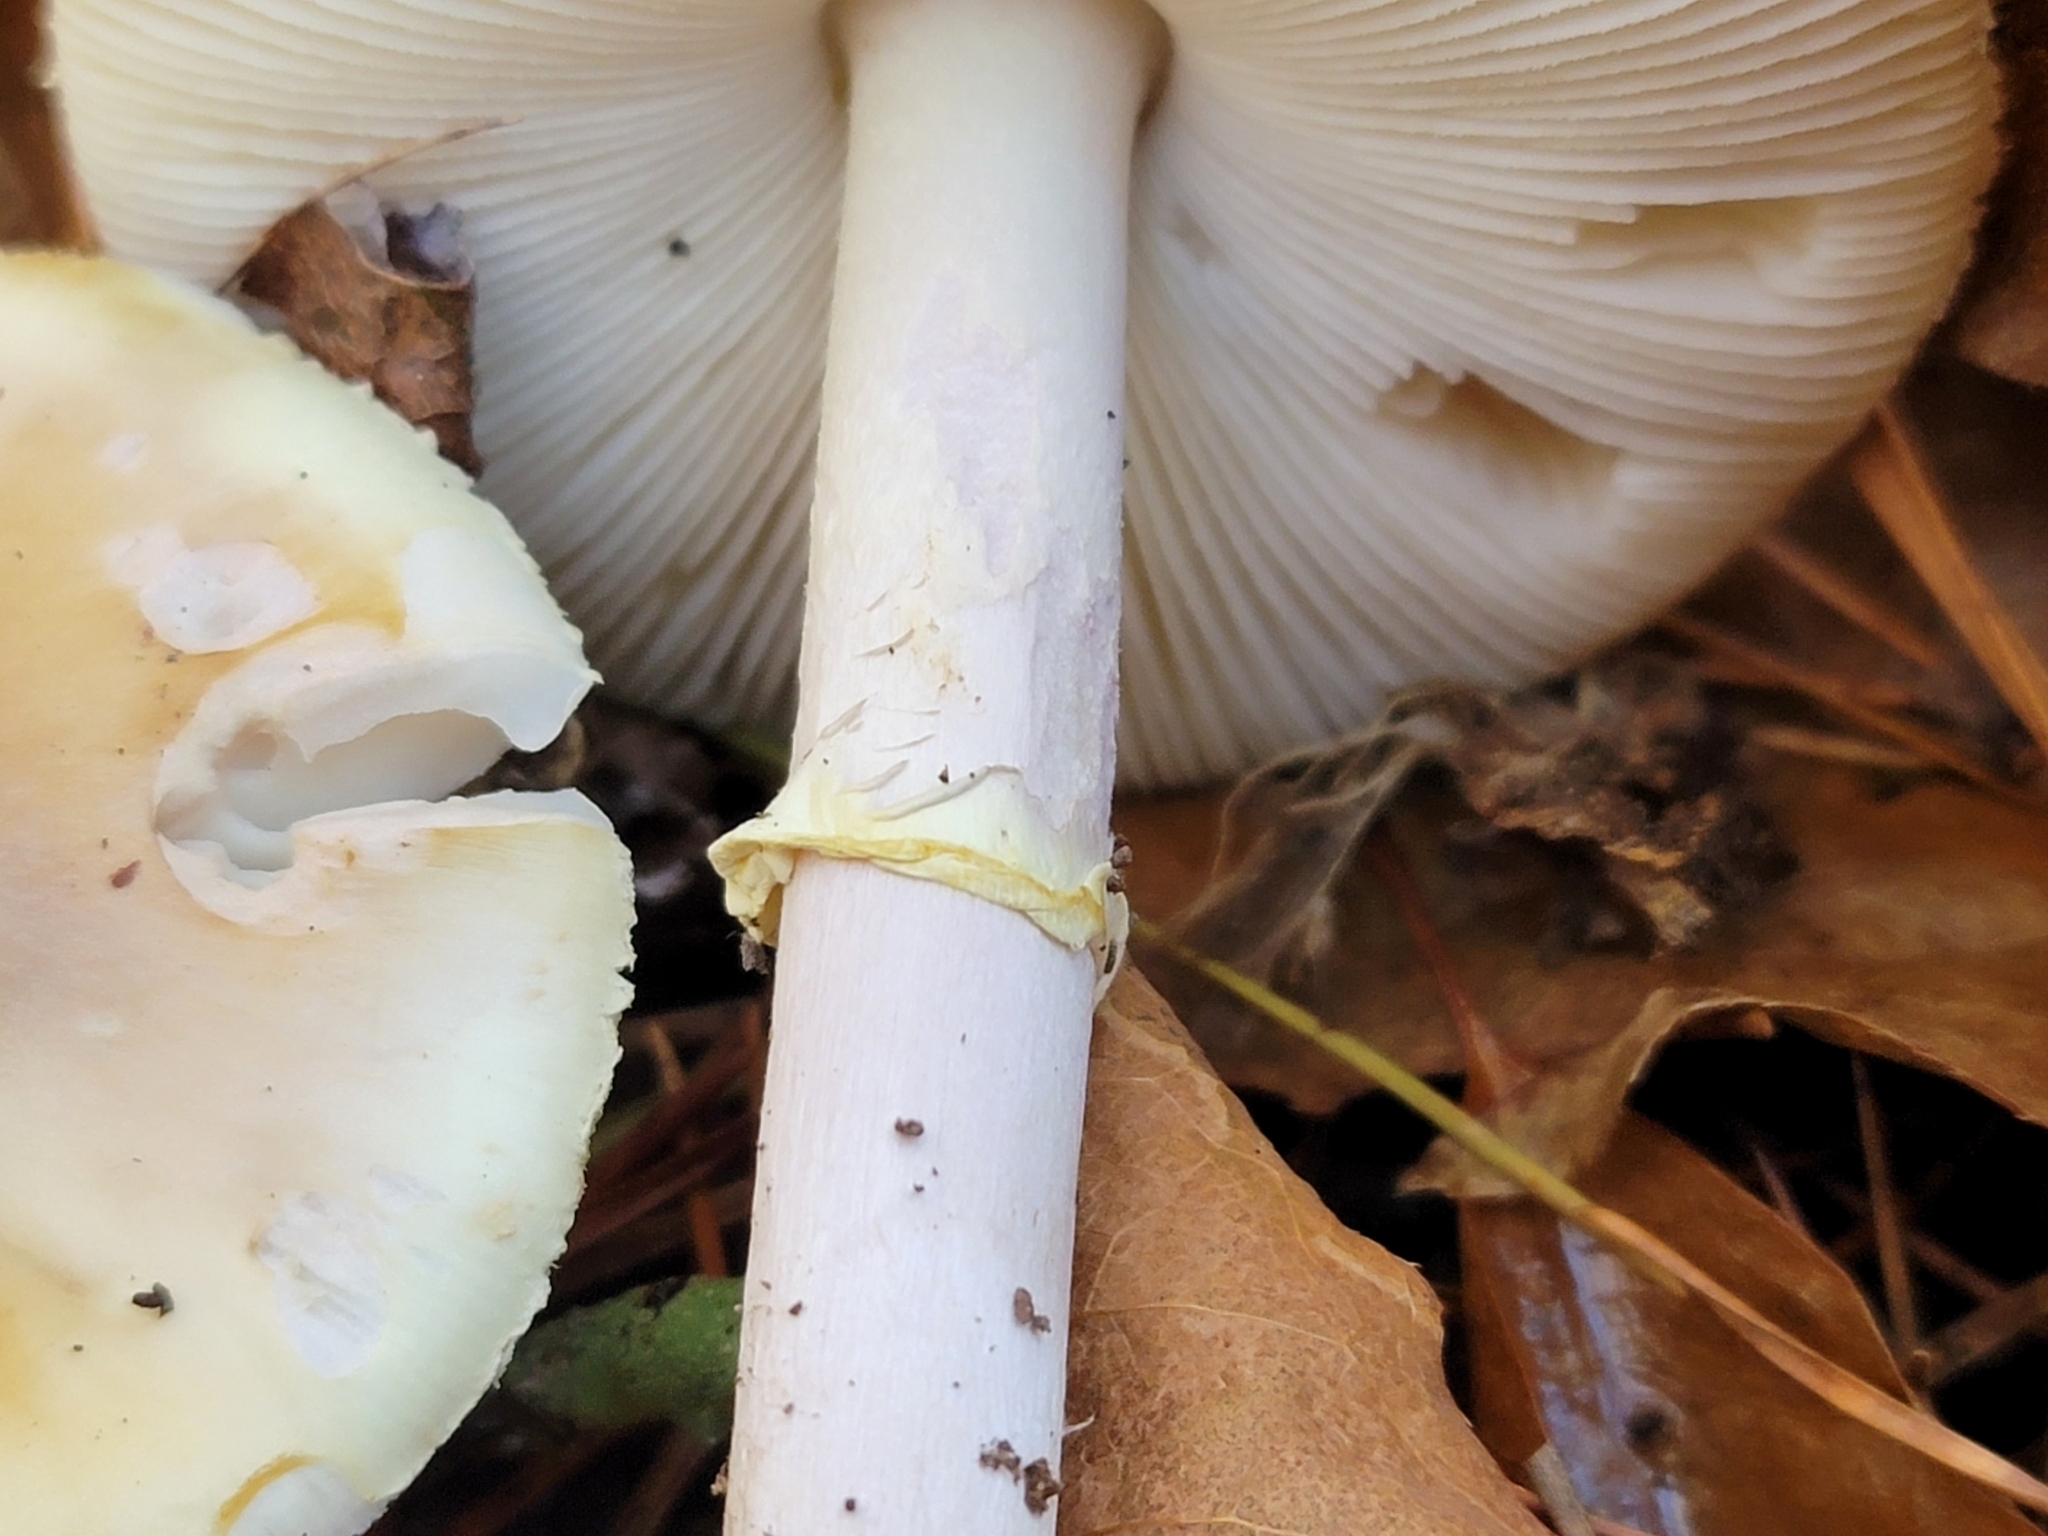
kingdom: Fungi
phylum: Basidiomycota
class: Agaricomycetes
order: Agaricales
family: Amanitaceae
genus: Amanita
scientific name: Amanita lavendula
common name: Coker's lavender staining amanita
